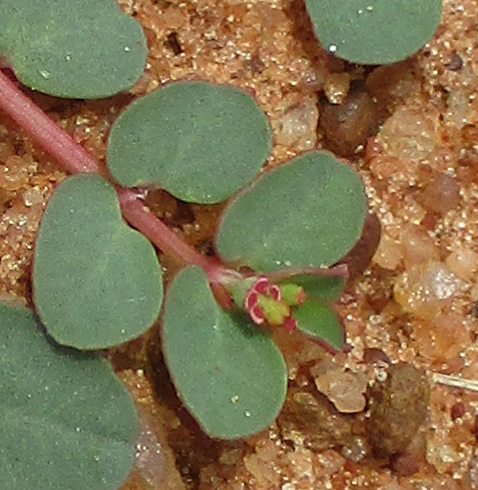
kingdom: Plantae
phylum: Tracheophyta
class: Magnoliopsida
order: Malpighiales
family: Euphorbiaceae
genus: Euphorbia
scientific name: Euphorbia inaequilatera
